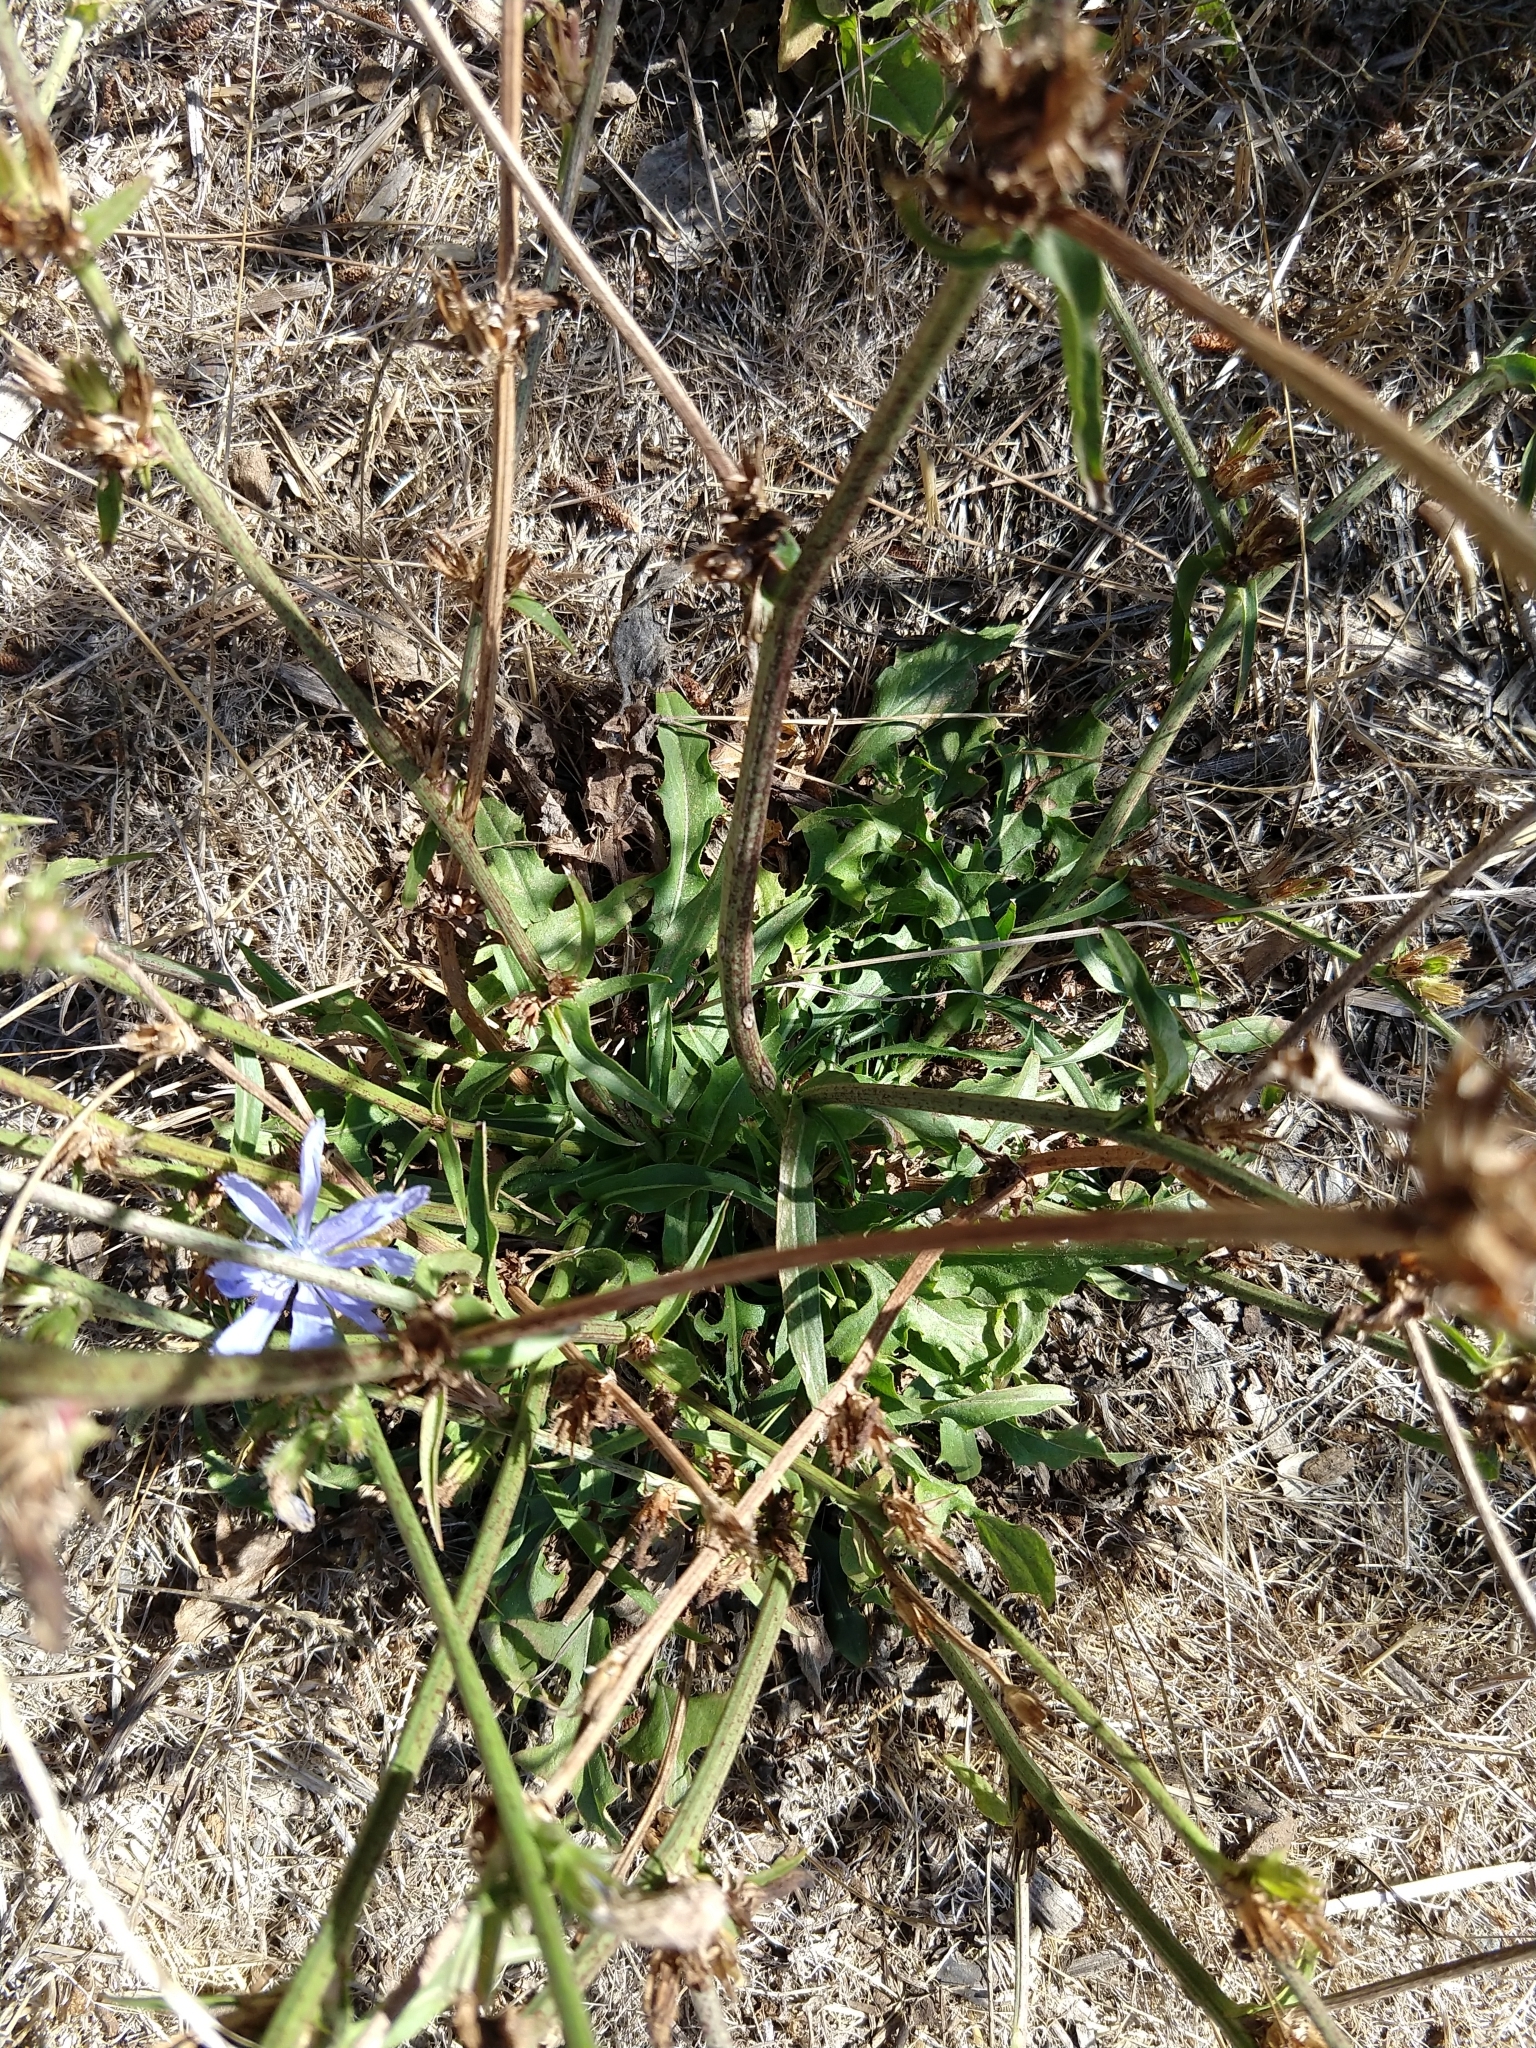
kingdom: Plantae
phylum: Tracheophyta
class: Magnoliopsida
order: Asterales
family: Asteraceae
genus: Cichorium
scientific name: Cichorium intybus
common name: Chicory
